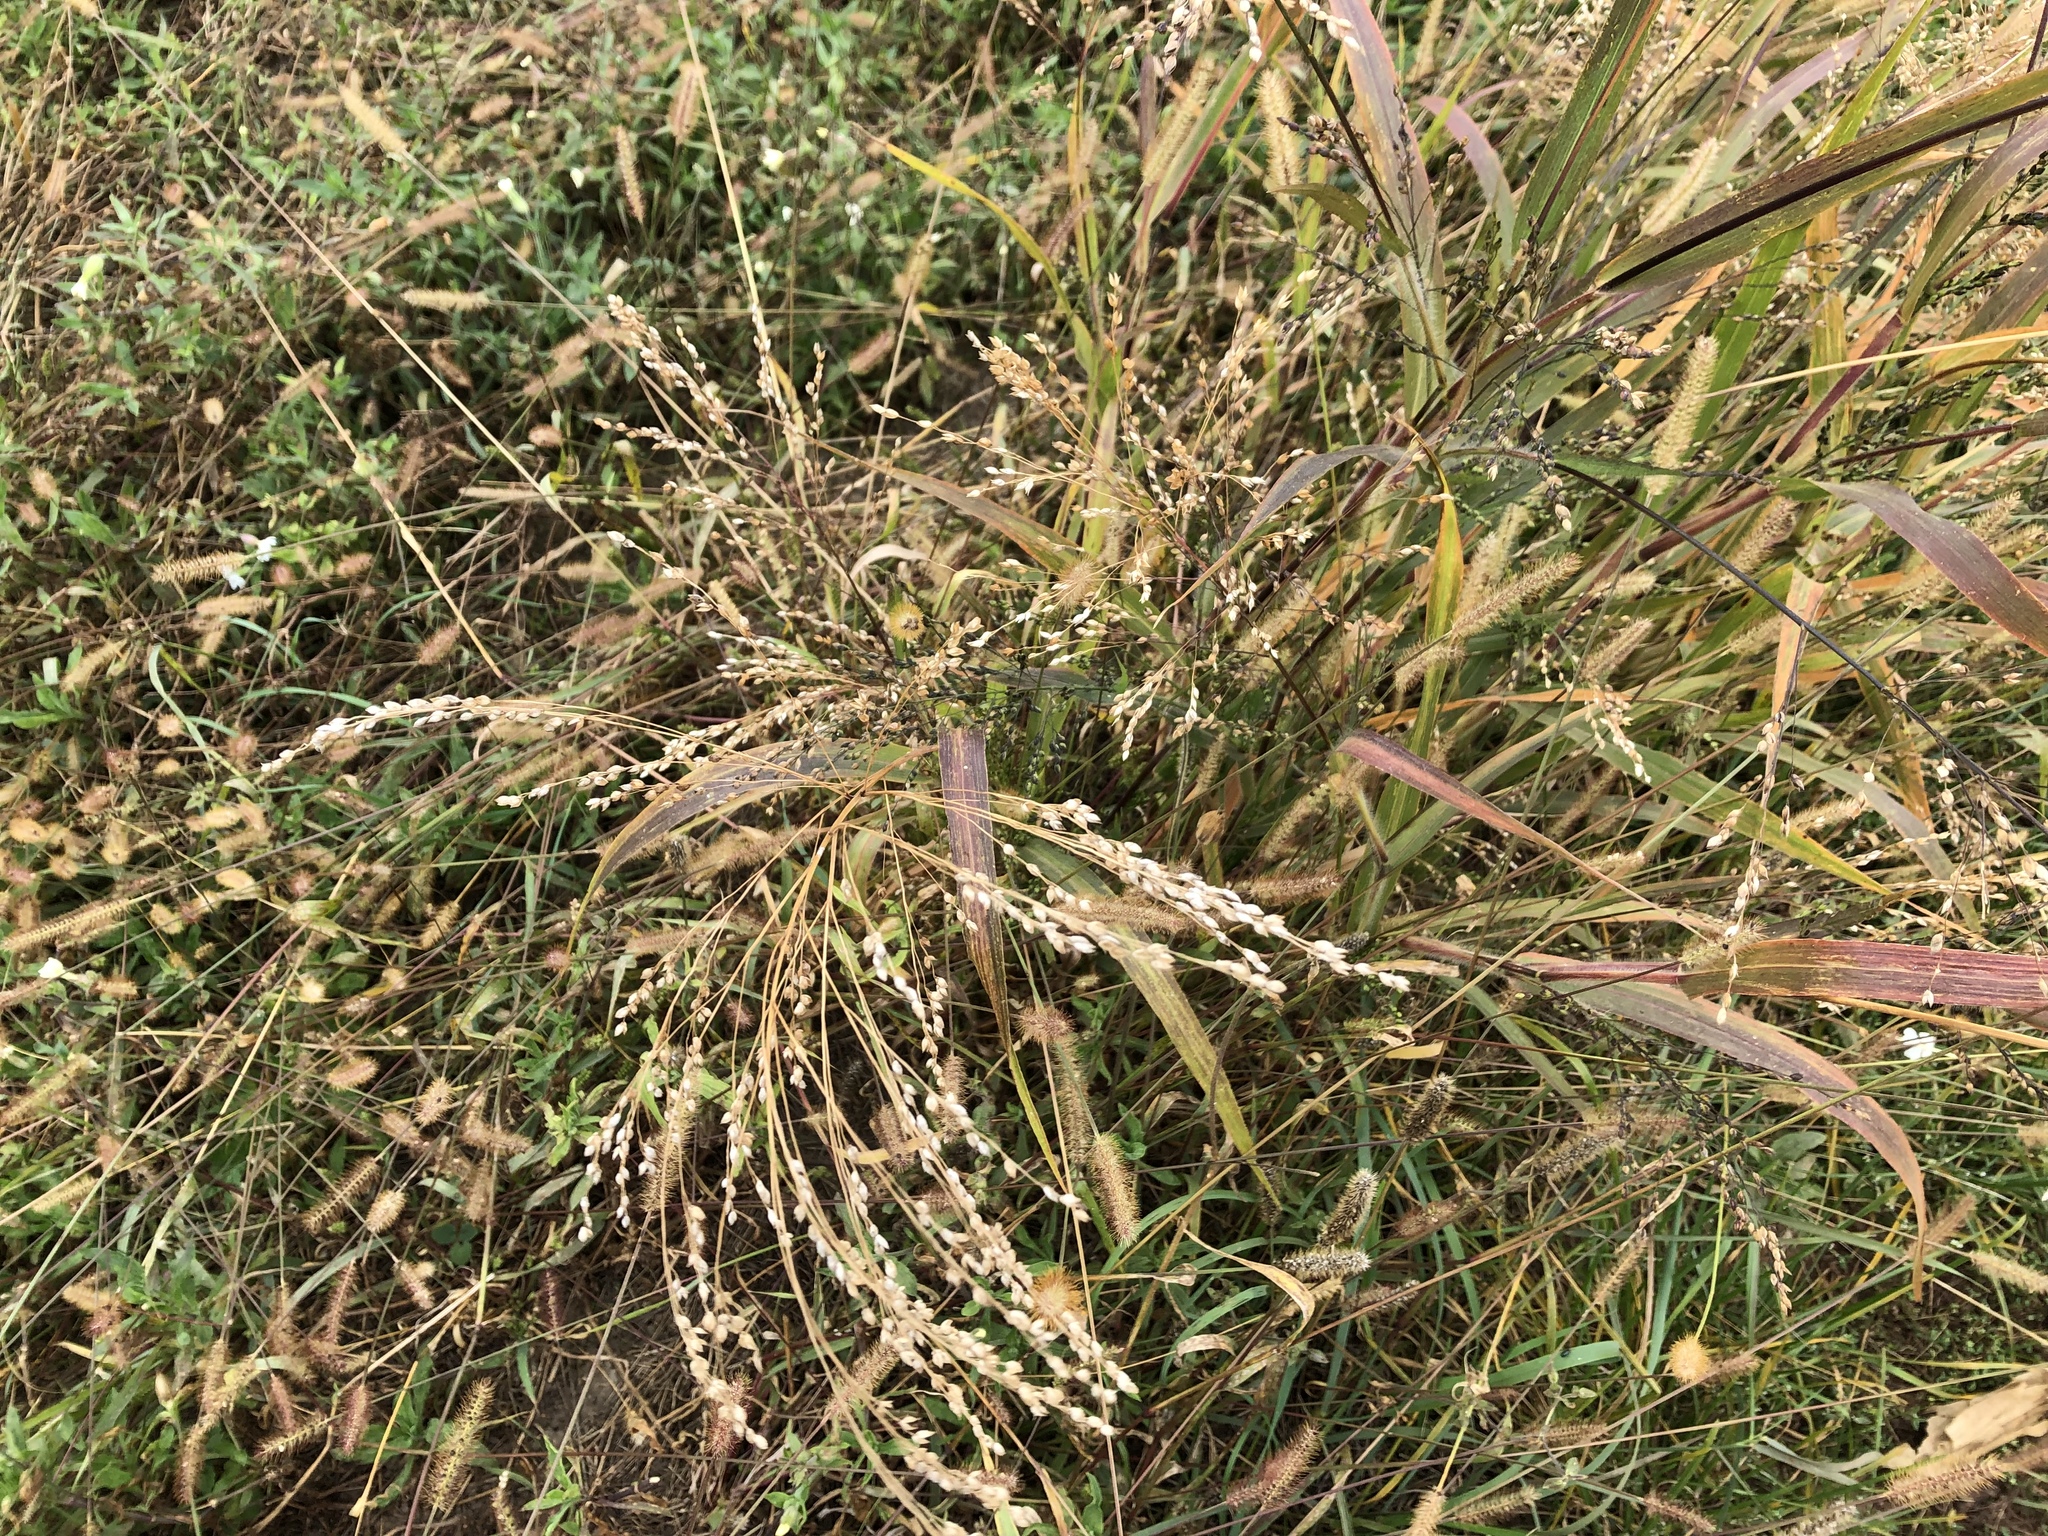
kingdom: Plantae
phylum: Tracheophyta
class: Liliopsida
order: Poales
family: Poaceae
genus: Panicum
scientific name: Panicum miliaceum
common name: Common millet
